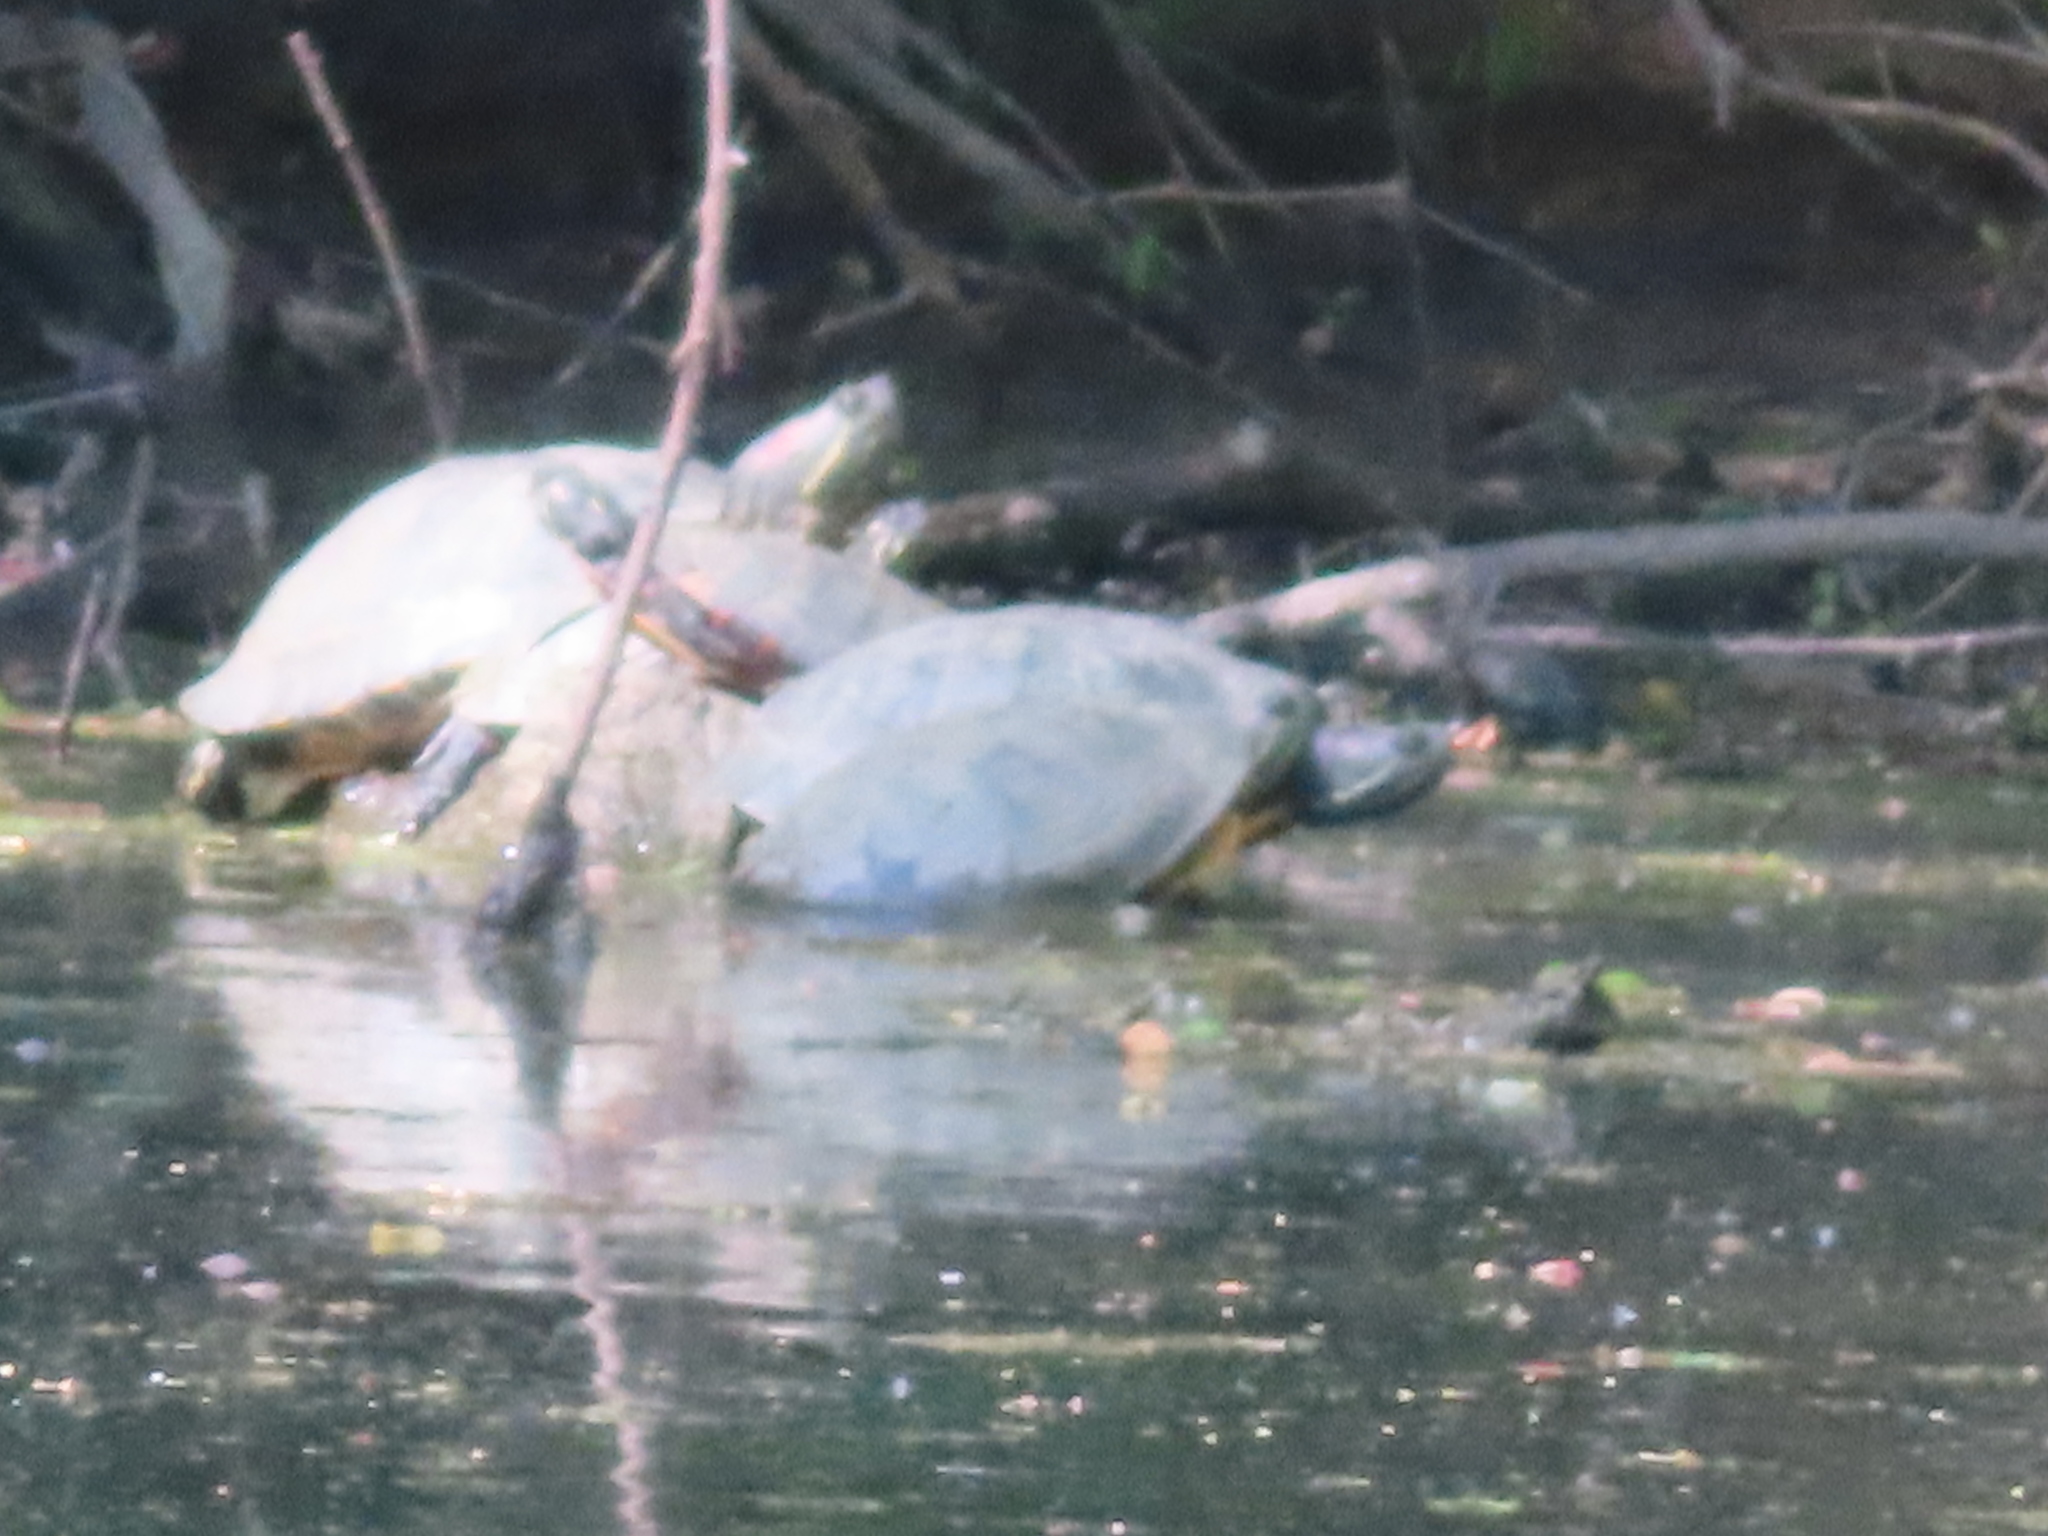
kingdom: Animalia
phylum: Chordata
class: Testudines
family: Emydidae
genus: Chrysemys
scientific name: Chrysemys picta
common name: Painted turtle
